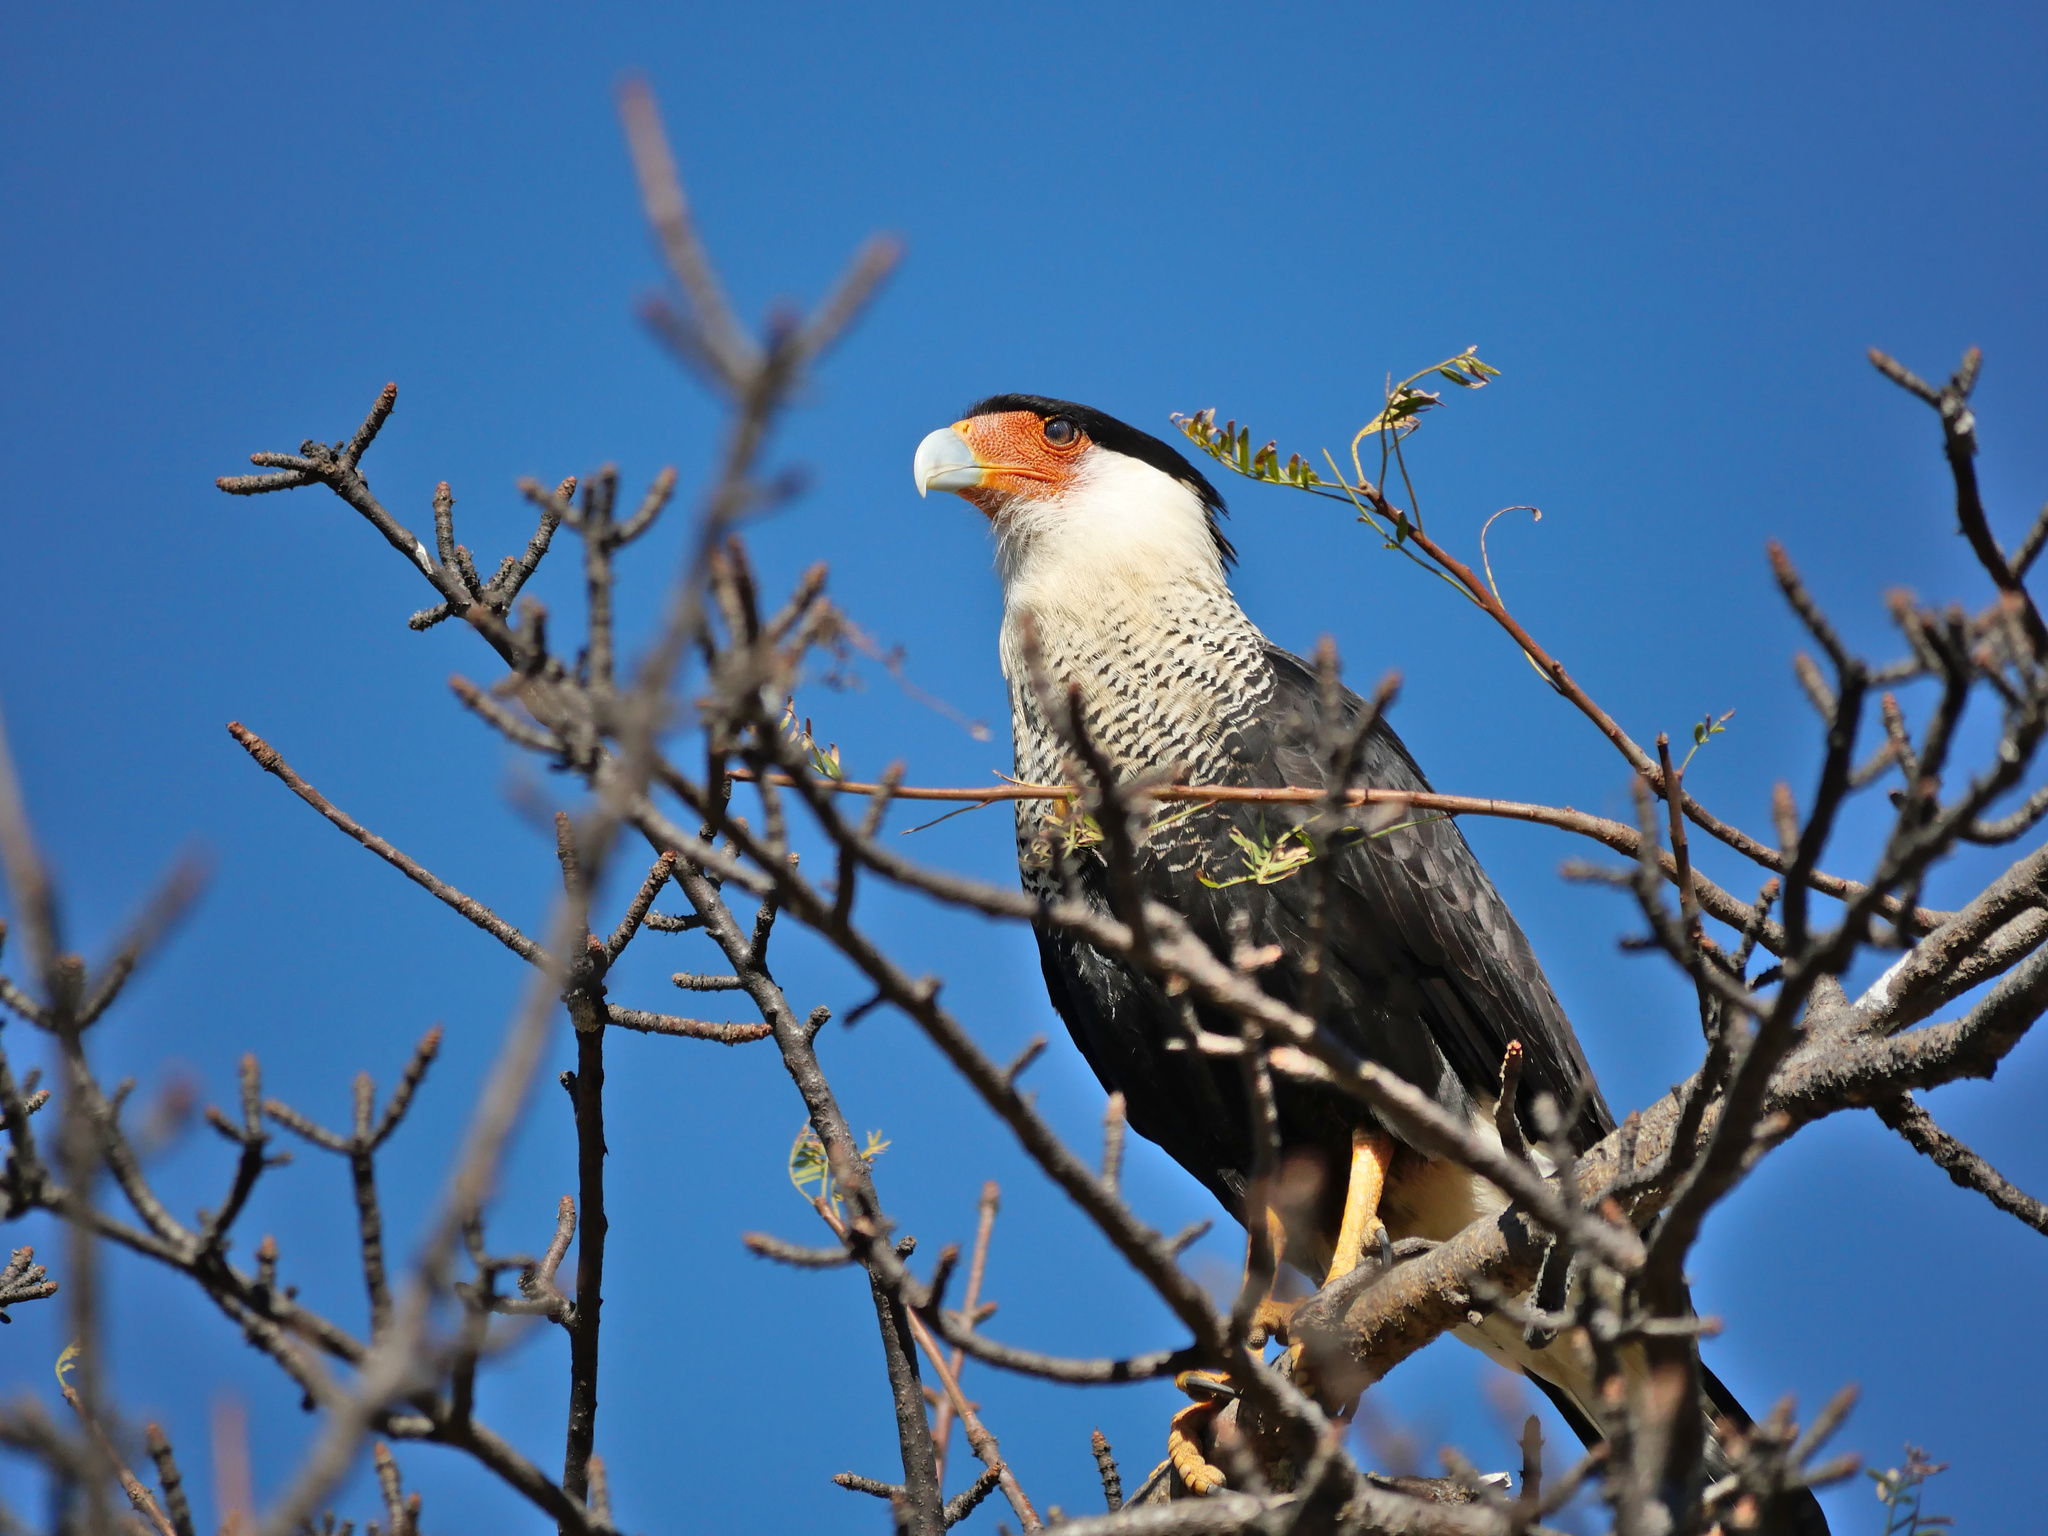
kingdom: Animalia
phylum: Chordata
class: Aves
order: Falconiformes
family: Falconidae
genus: Caracara
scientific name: Caracara plancus
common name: Southern caracara
